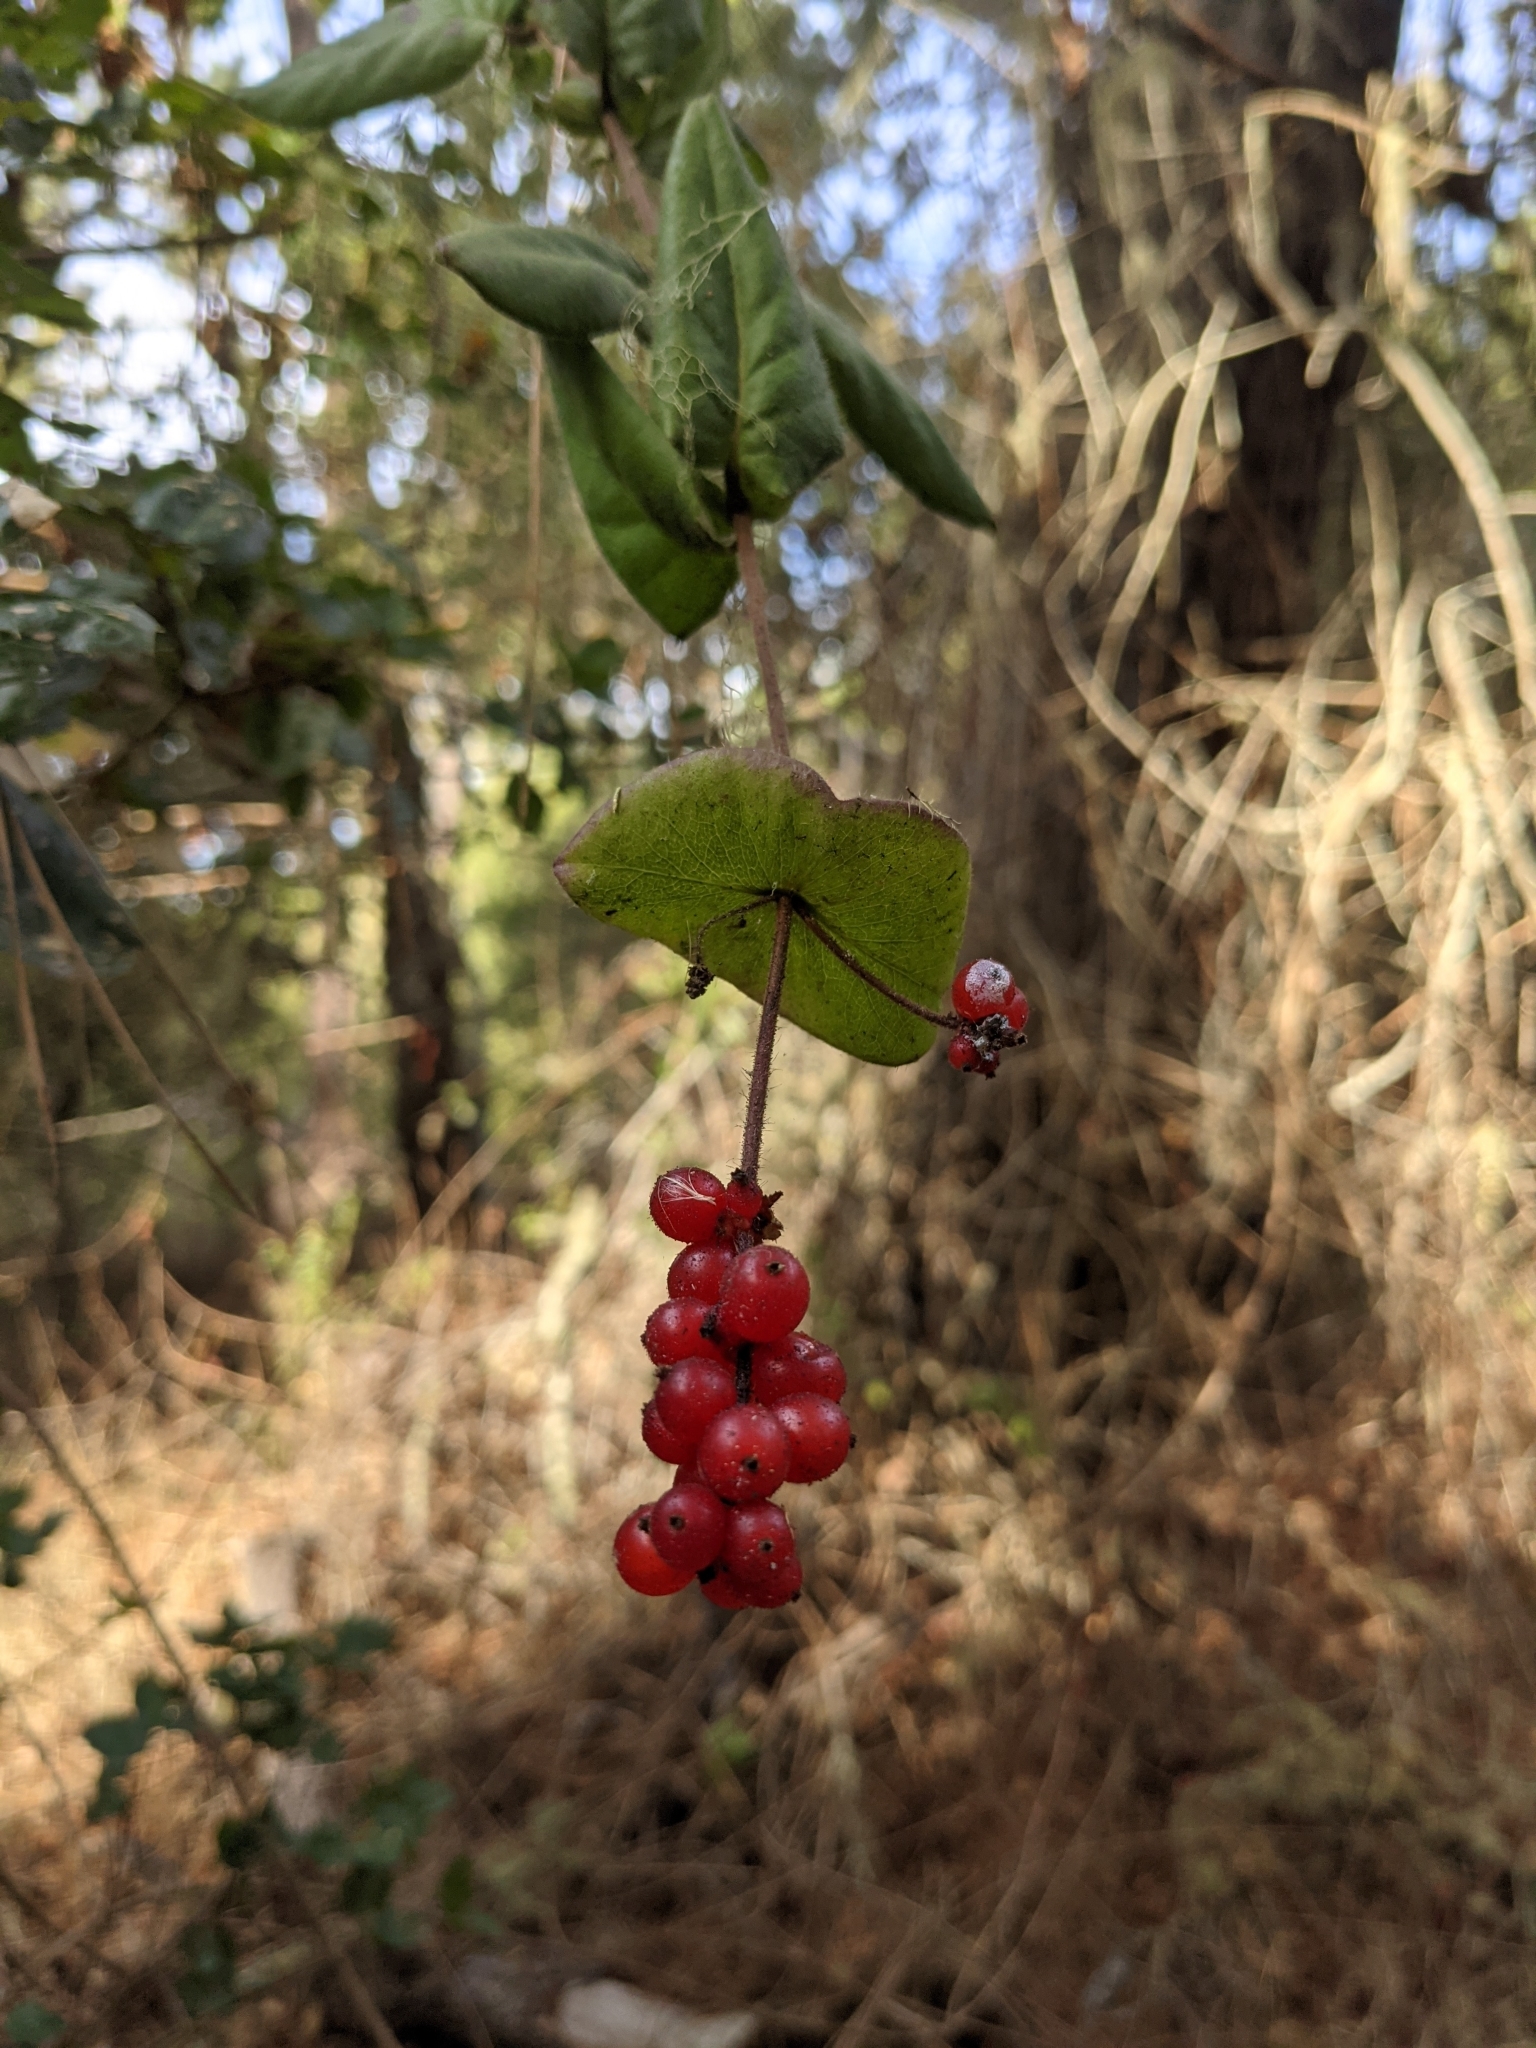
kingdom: Plantae
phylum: Tracheophyta
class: Magnoliopsida
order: Dipsacales
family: Caprifoliaceae
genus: Lonicera
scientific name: Lonicera hispidula
